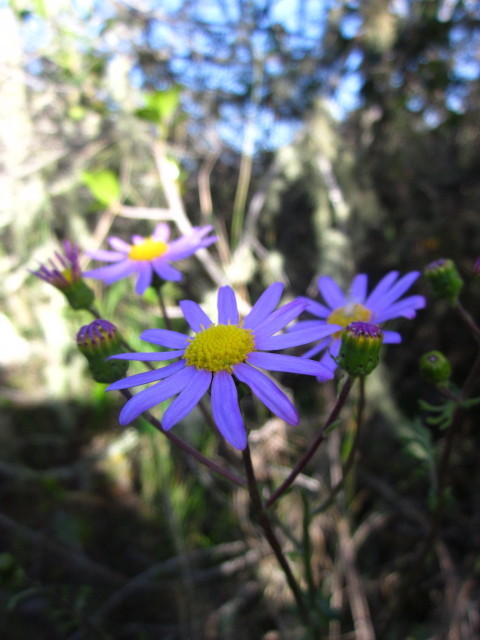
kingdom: Plantae
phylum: Tracheophyta
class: Magnoliopsida
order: Asterales
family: Asteraceae
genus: Senecio
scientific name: Senecio elegans
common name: Purple groundsel
